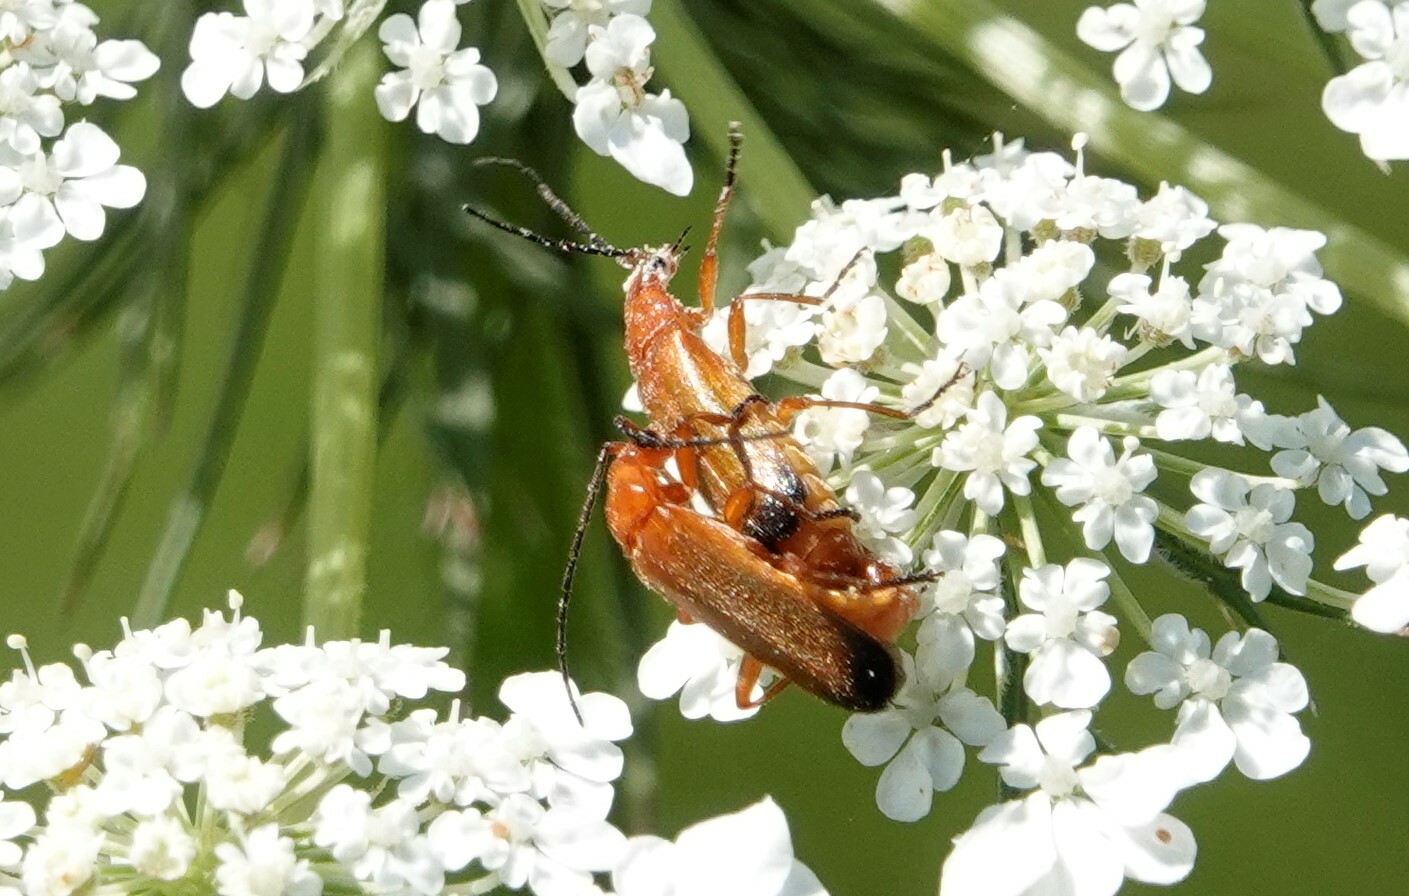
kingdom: Animalia
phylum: Arthropoda
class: Insecta
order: Coleoptera
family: Cantharidae
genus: Rhagonycha
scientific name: Rhagonycha fulva
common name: Common red soldier beetle
